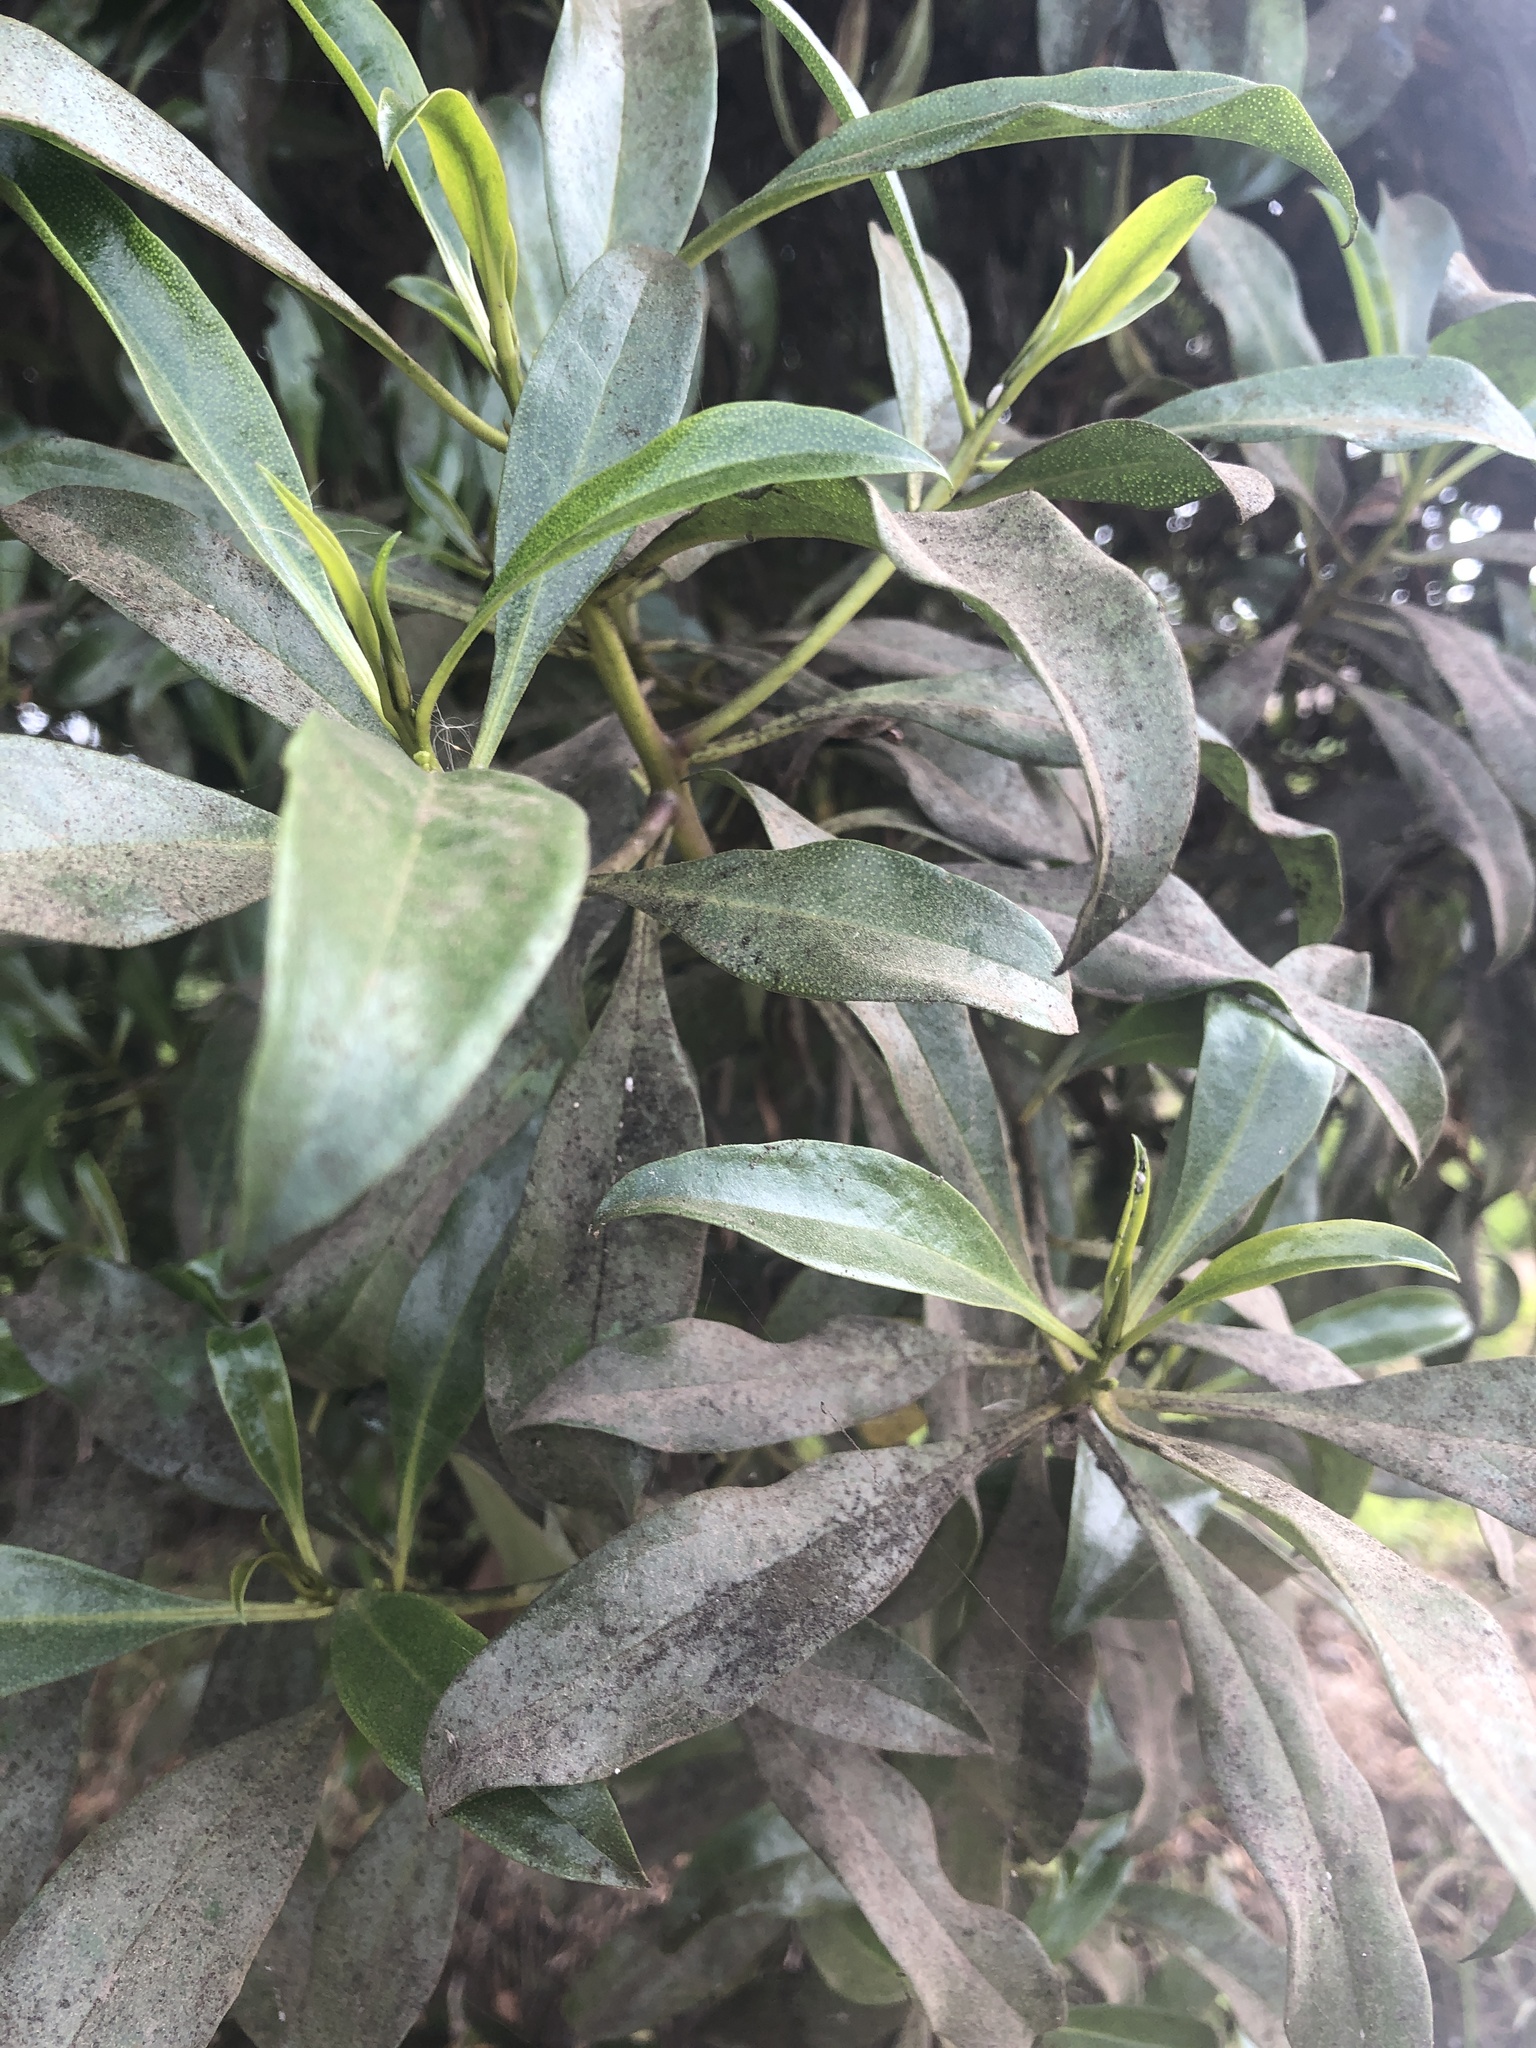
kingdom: Plantae
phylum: Tracheophyta
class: Magnoliopsida
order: Lamiales
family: Scrophulariaceae
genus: Myoporum
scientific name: Myoporum laetum
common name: Ngaio tree
